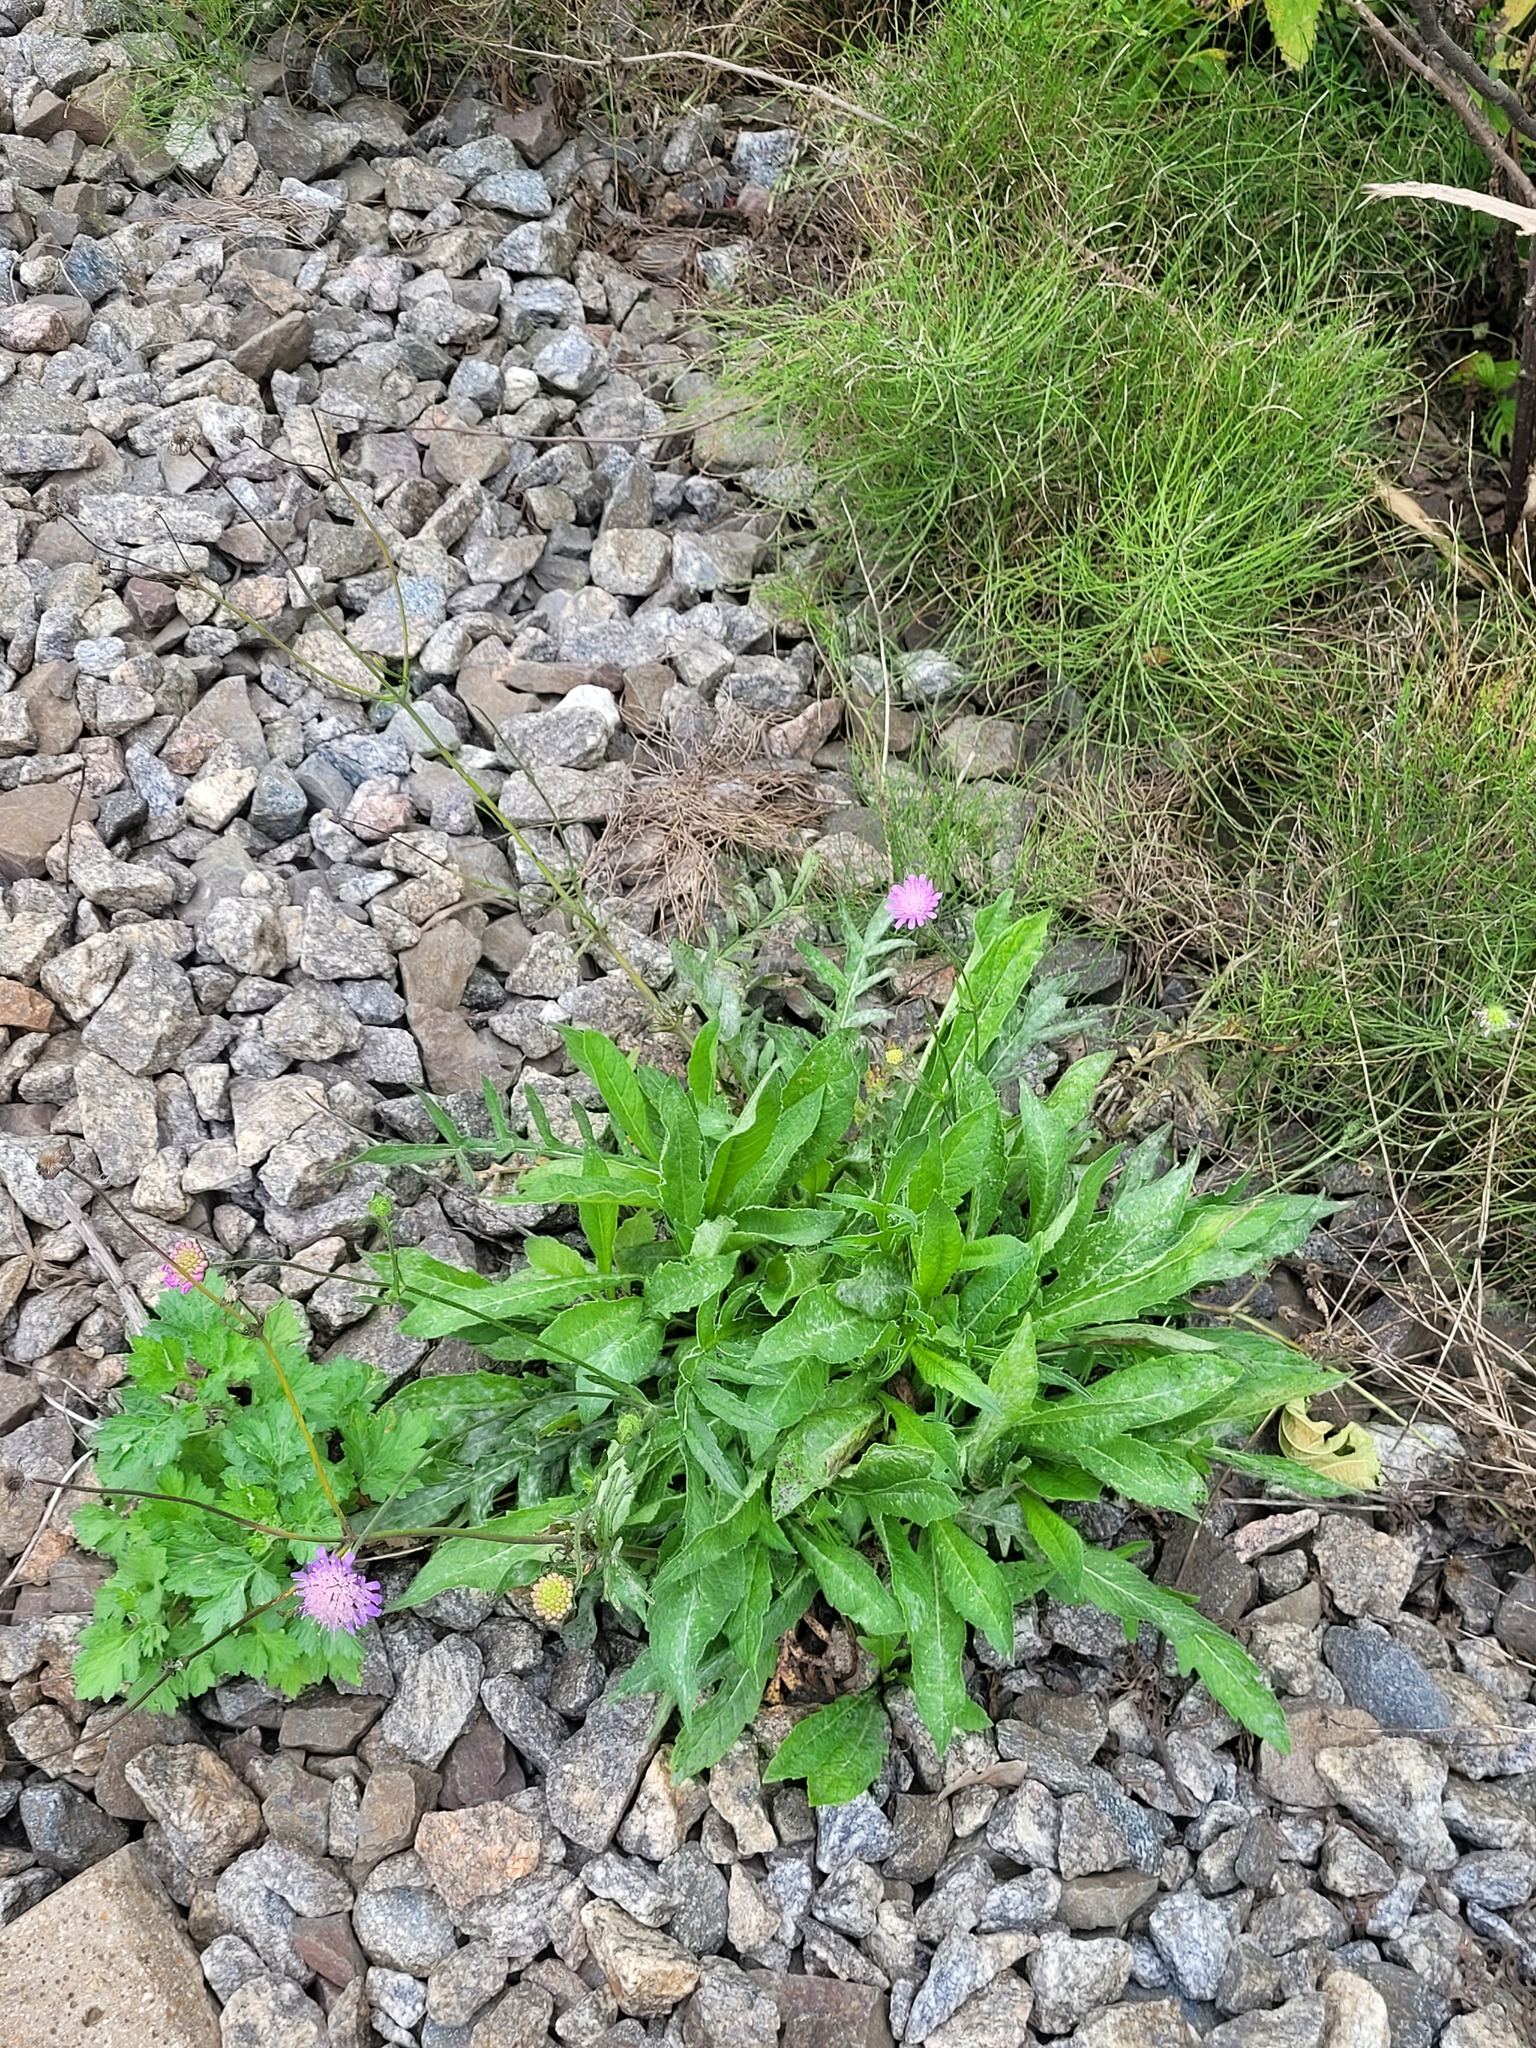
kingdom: Plantae
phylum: Tracheophyta
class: Magnoliopsida
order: Dipsacales
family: Caprifoliaceae
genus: Knautia
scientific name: Knautia arvensis
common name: Field scabiosa
